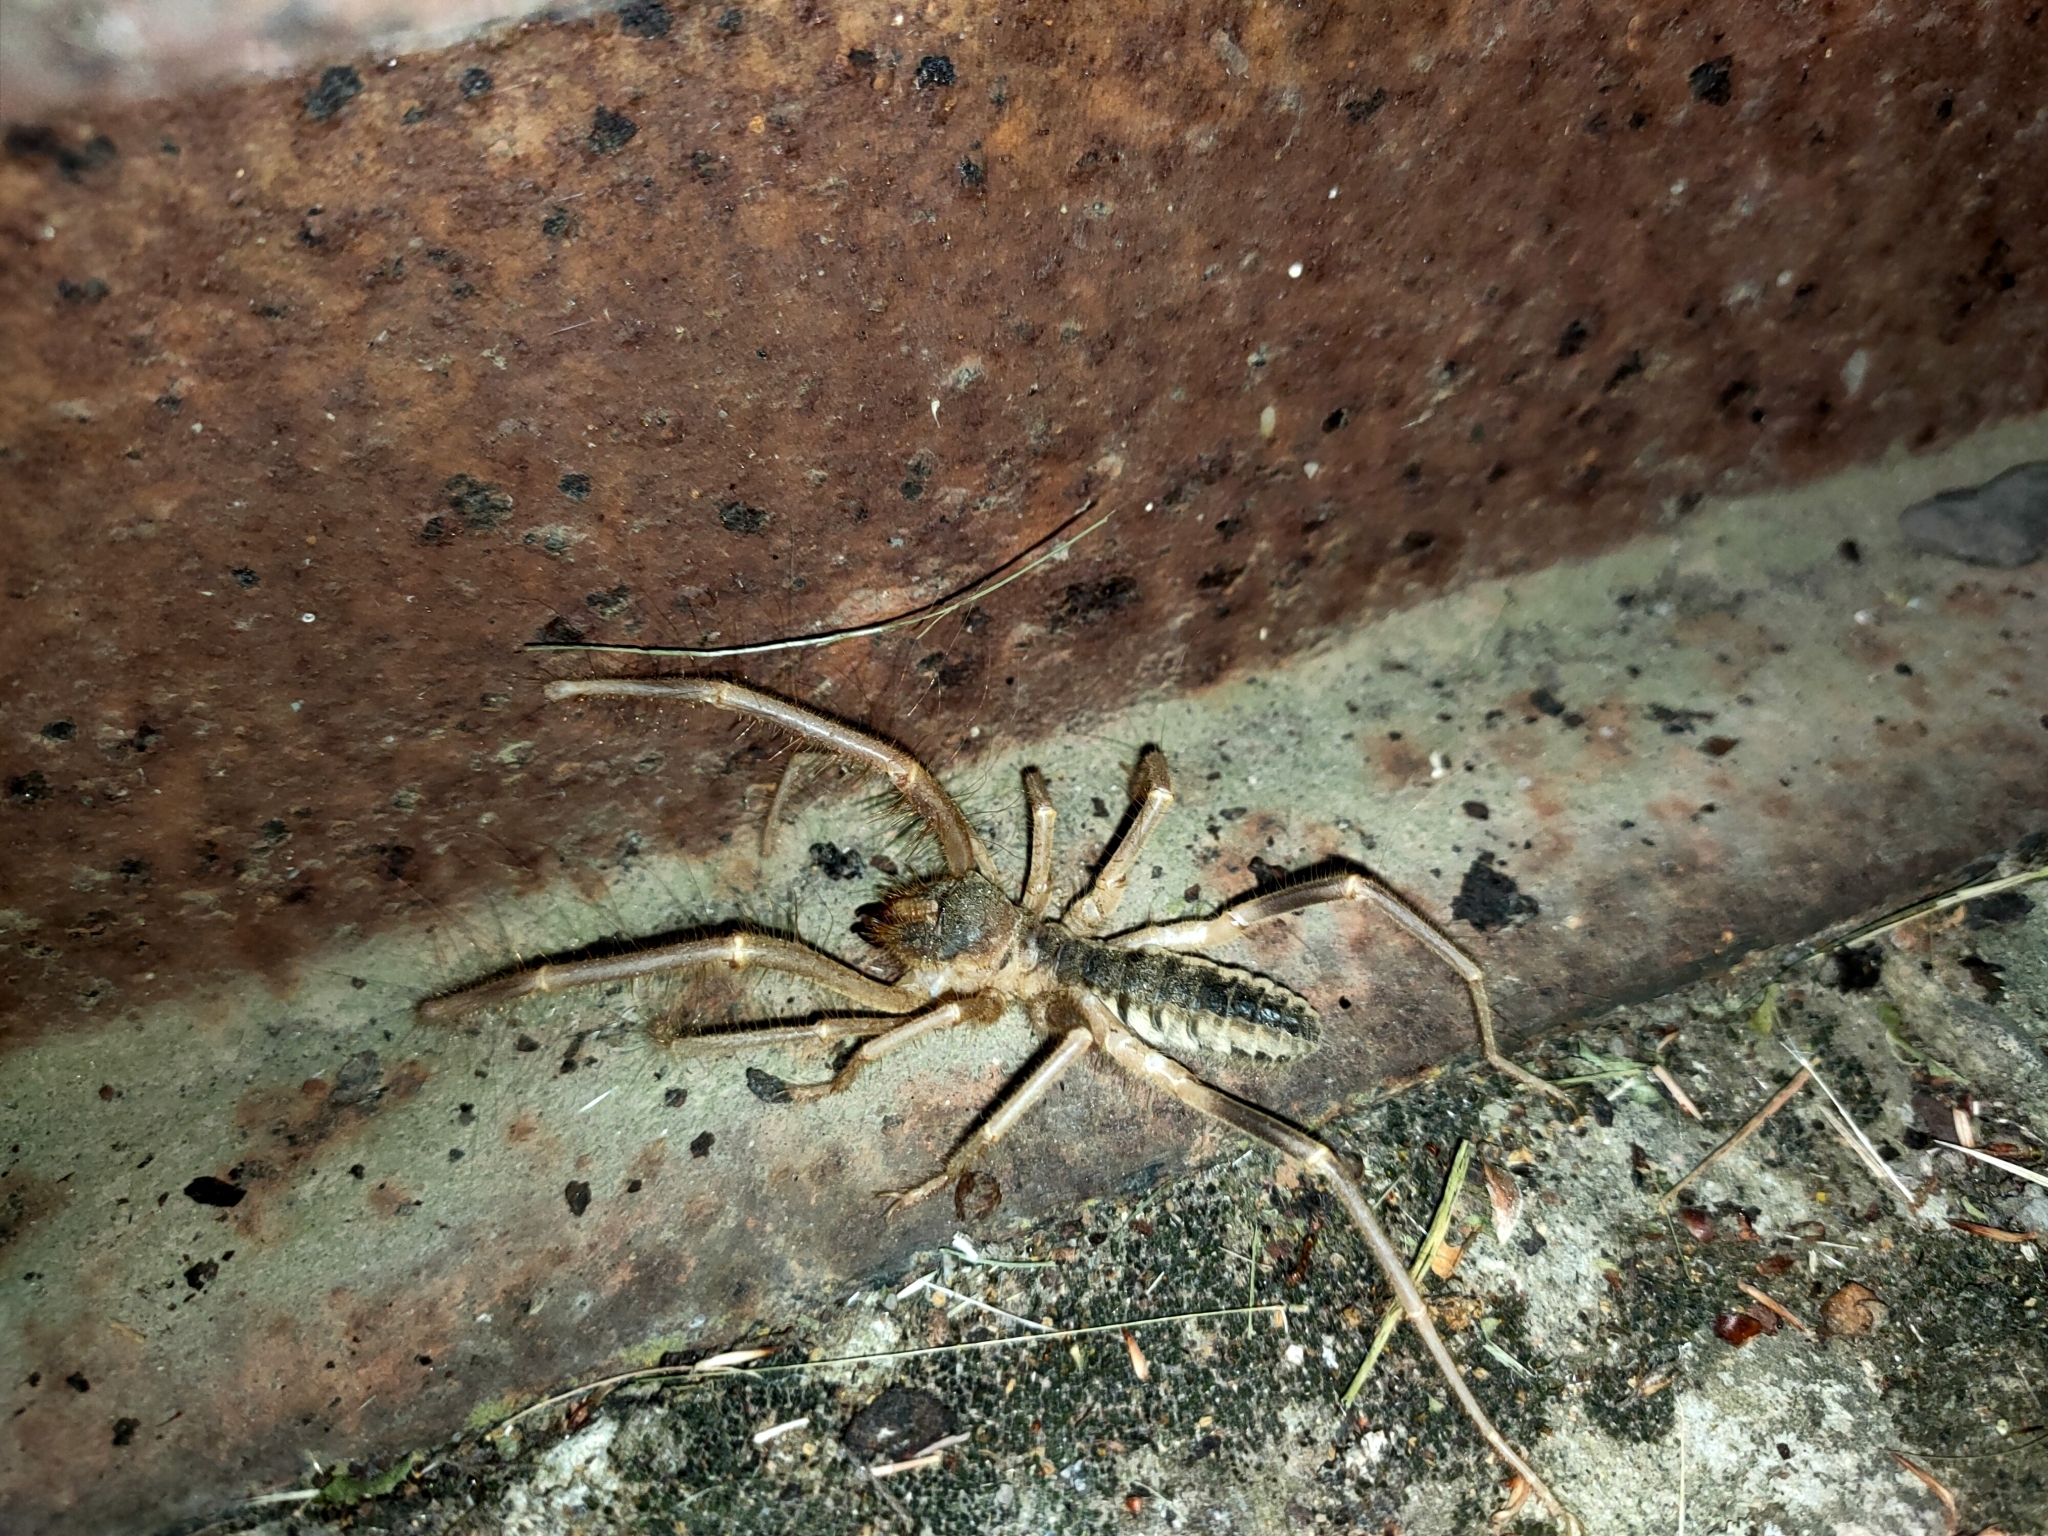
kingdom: Animalia
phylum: Arthropoda
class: Arachnida
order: Solifugae
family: Galeodidae
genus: Galeodes
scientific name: Galeodes araneoides
